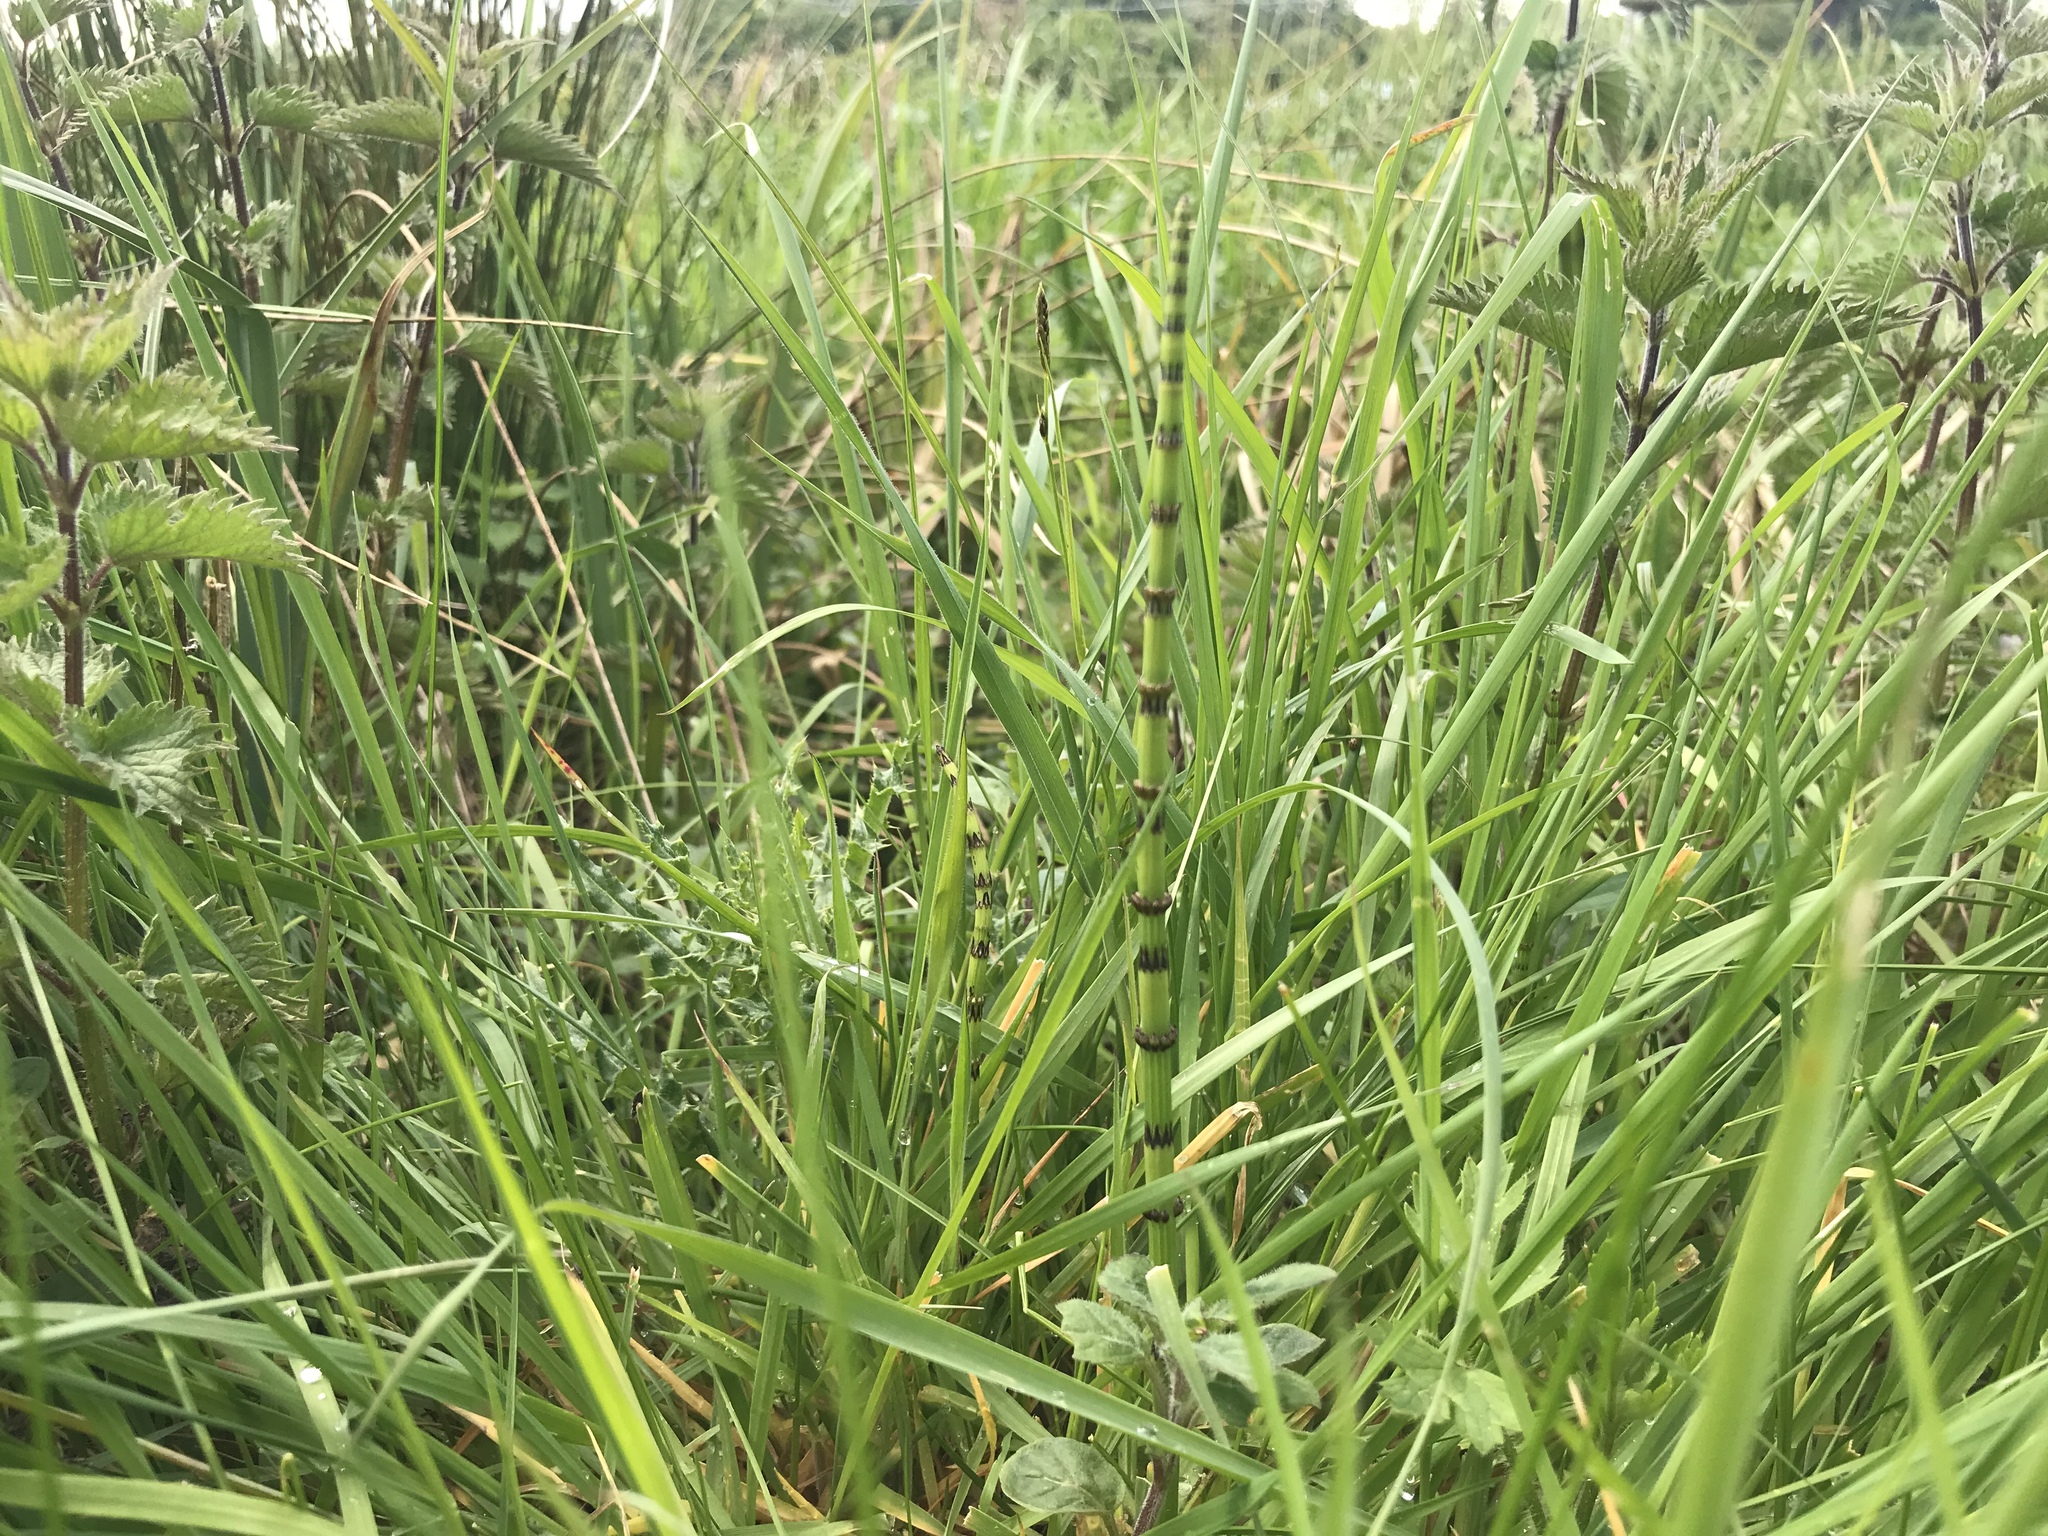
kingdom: Plantae
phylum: Tracheophyta
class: Polypodiopsida
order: Equisetales
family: Equisetaceae
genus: Equisetum
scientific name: Equisetum palustre
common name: Marsh horsetail
